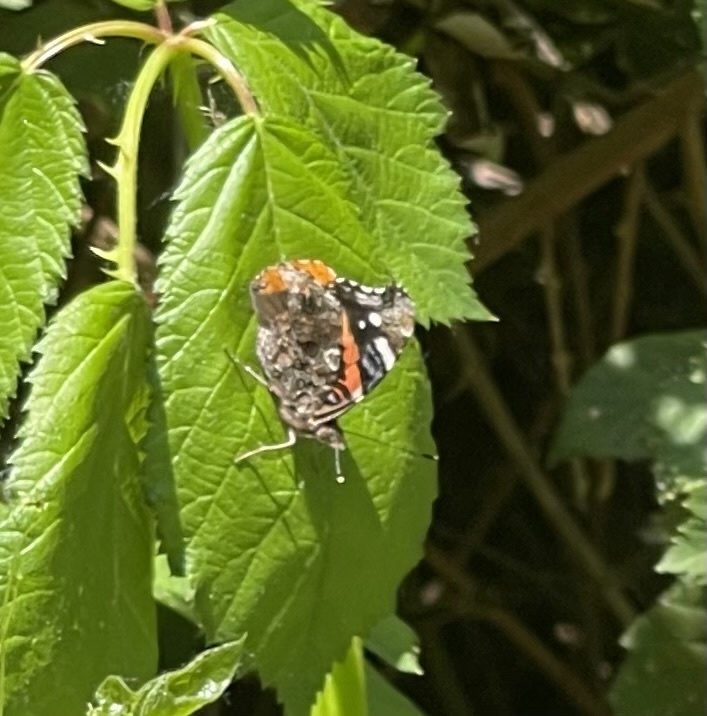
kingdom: Animalia
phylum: Arthropoda
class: Insecta
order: Lepidoptera
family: Nymphalidae
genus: Vanessa
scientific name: Vanessa atalanta
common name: Red admiral
